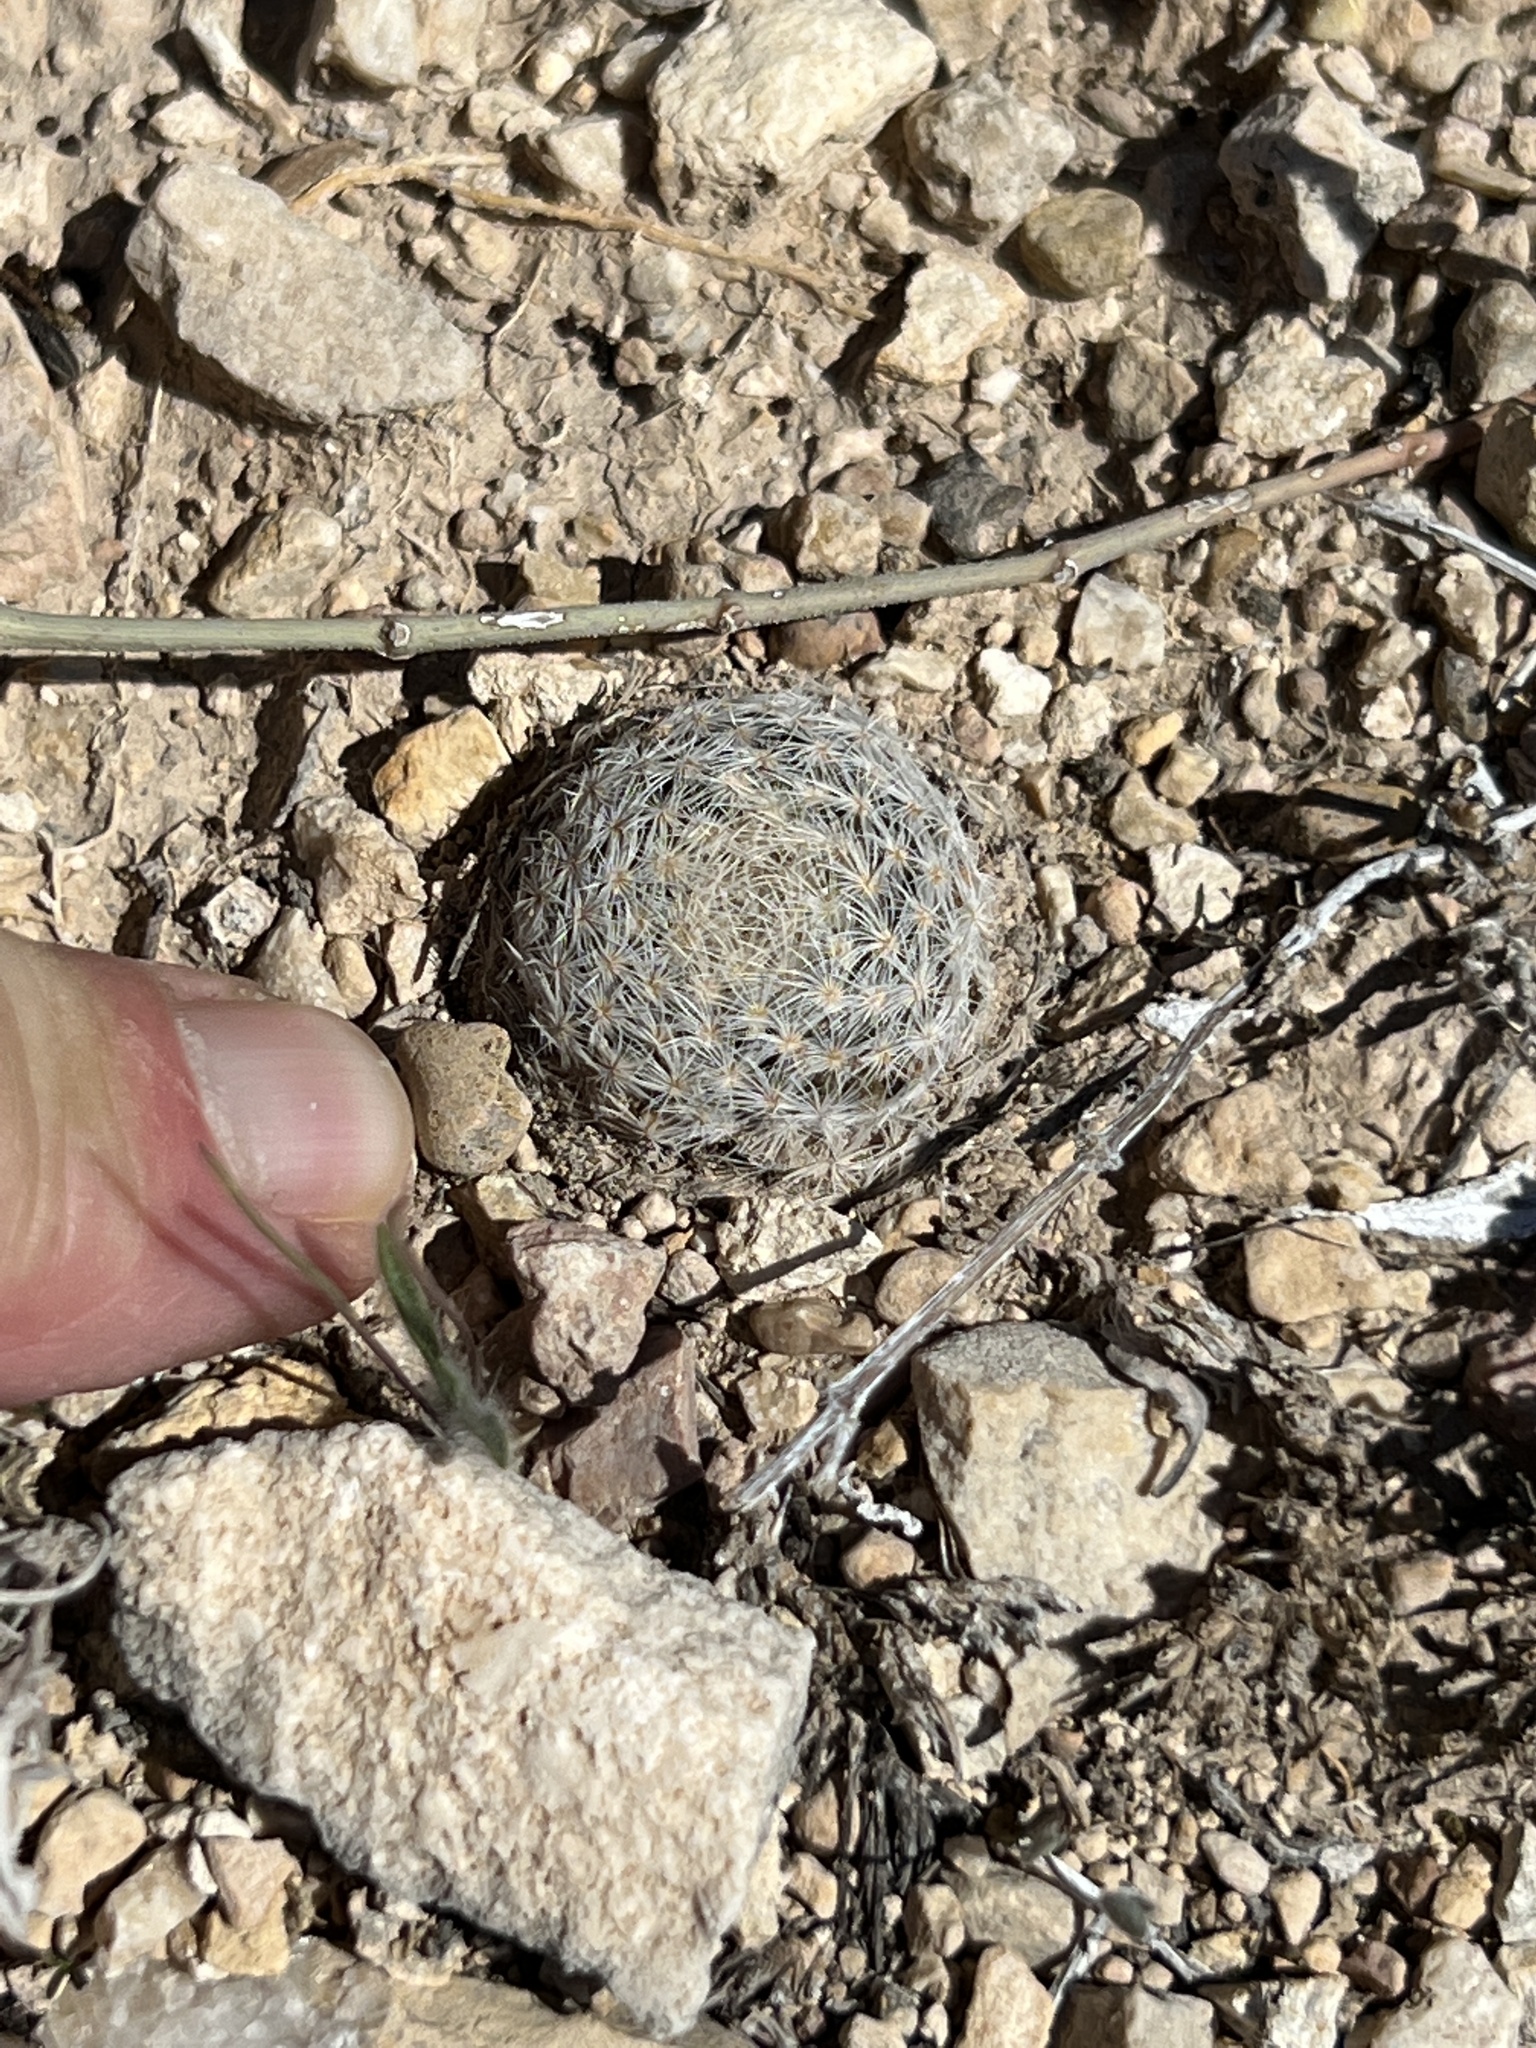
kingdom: Plantae
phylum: Tracheophyta
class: Magnoliopsida
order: Caryophyllales
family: Cactaceae
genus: Mammillaria
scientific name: Mammillaria lasiacantha
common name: Lace-spine nipple cactus
